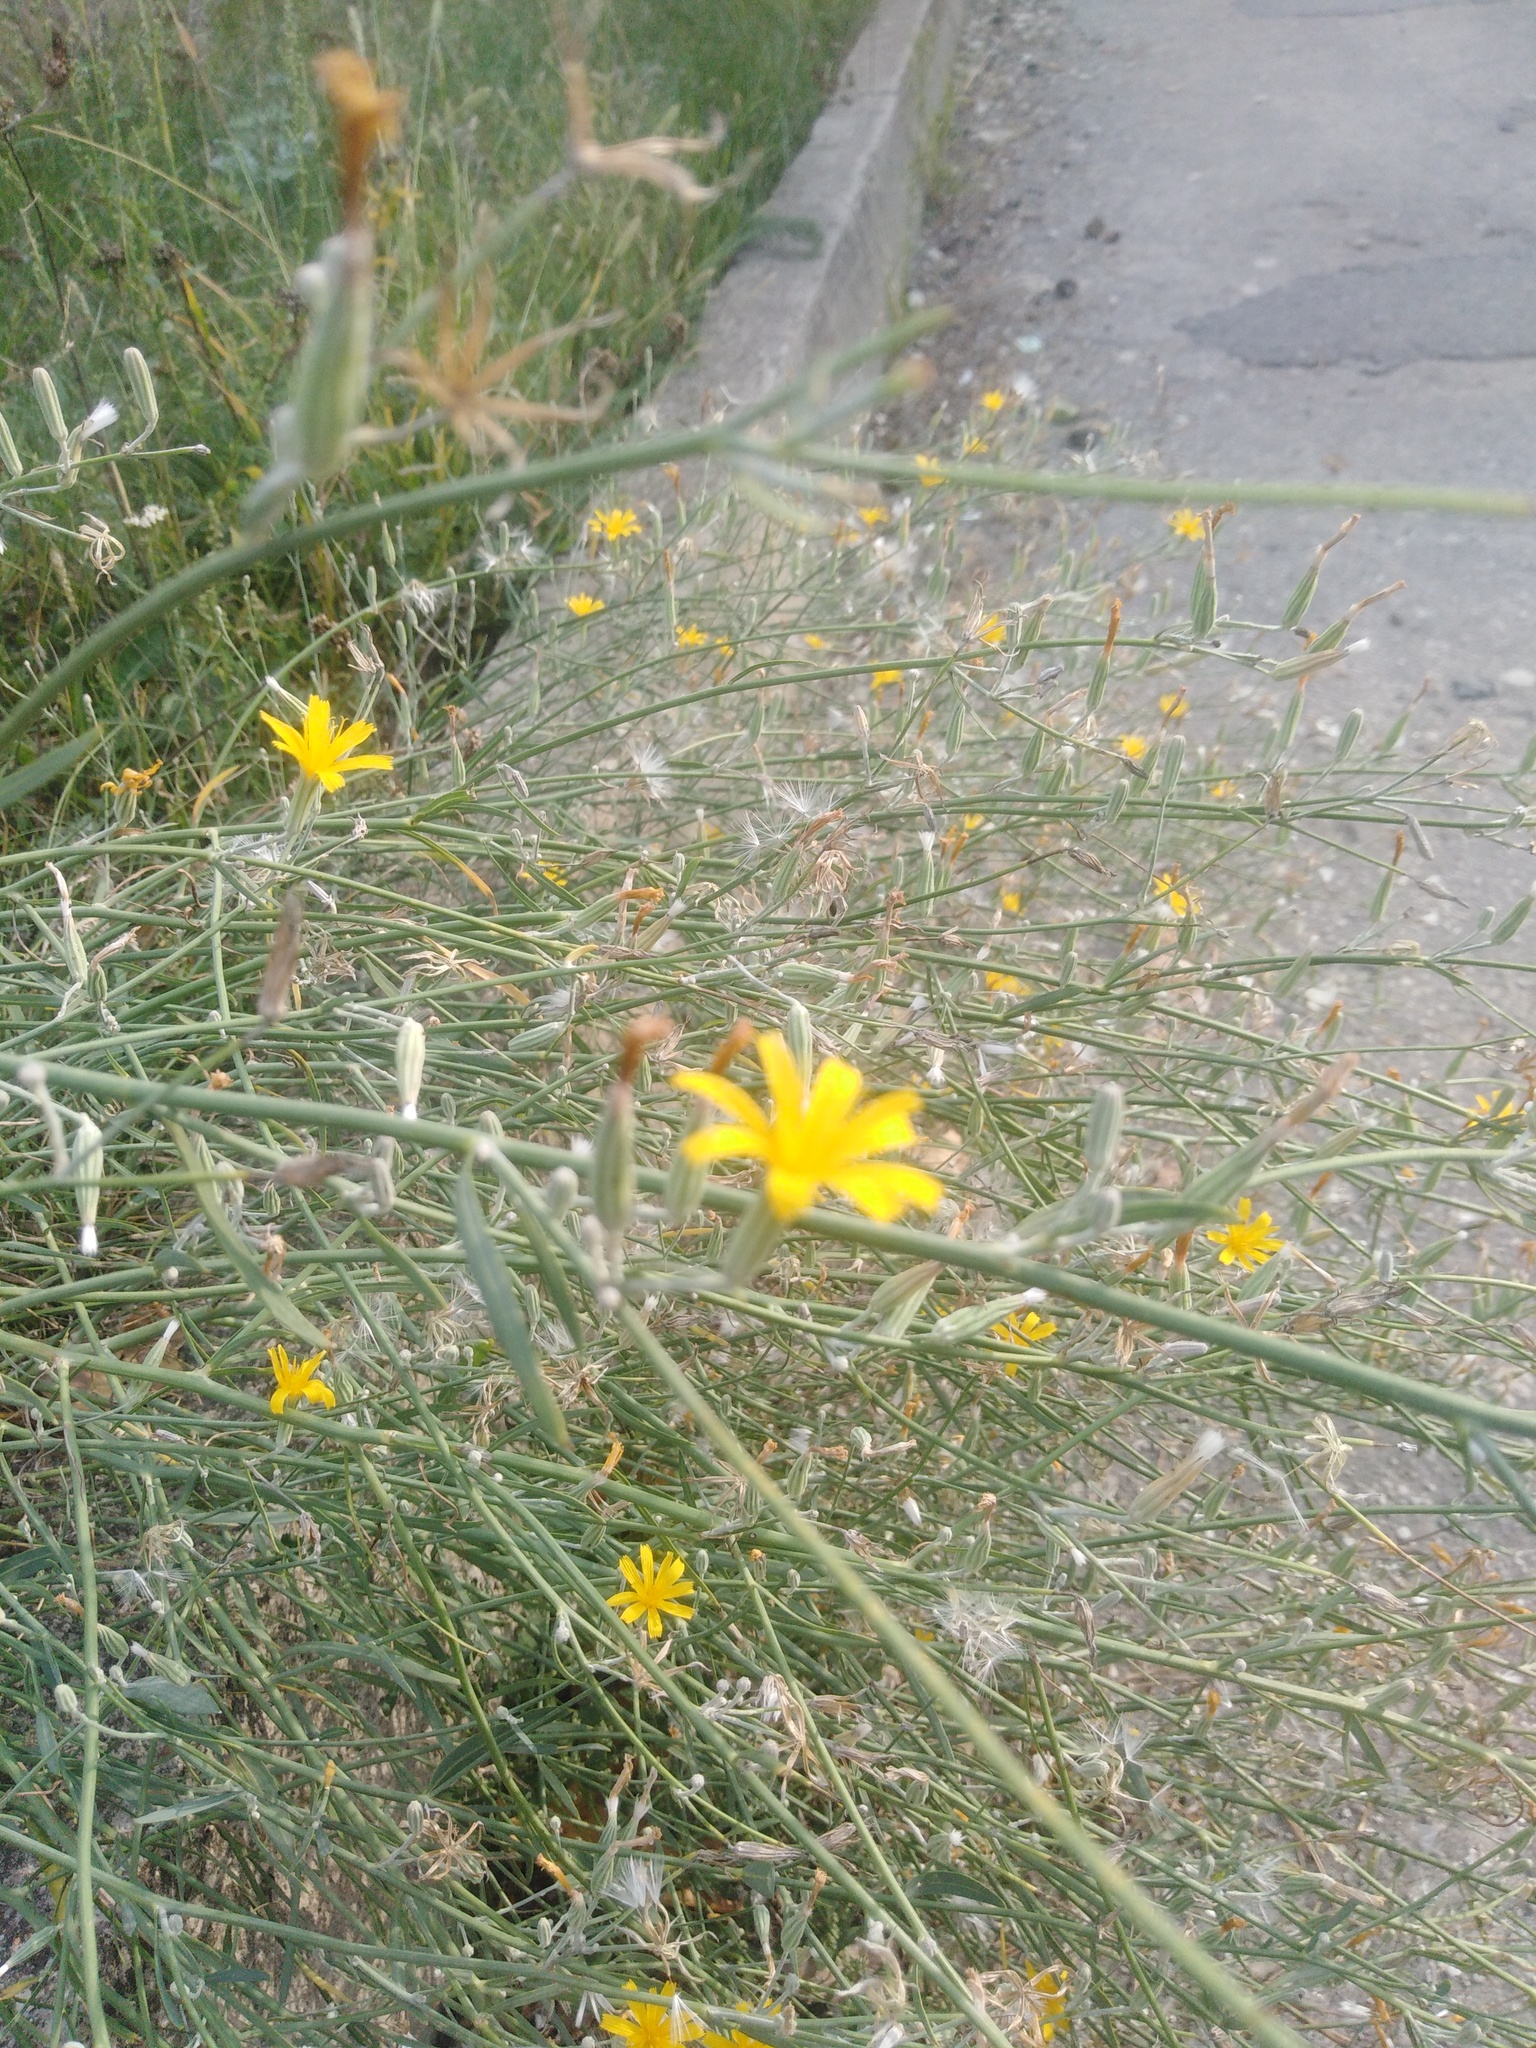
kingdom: Plantae
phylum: Tracheophyta
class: Magnoliopsida
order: Asterales
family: Asteraceae
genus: Chondrilla
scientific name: Chondrilla juncea
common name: Skeleton weed
